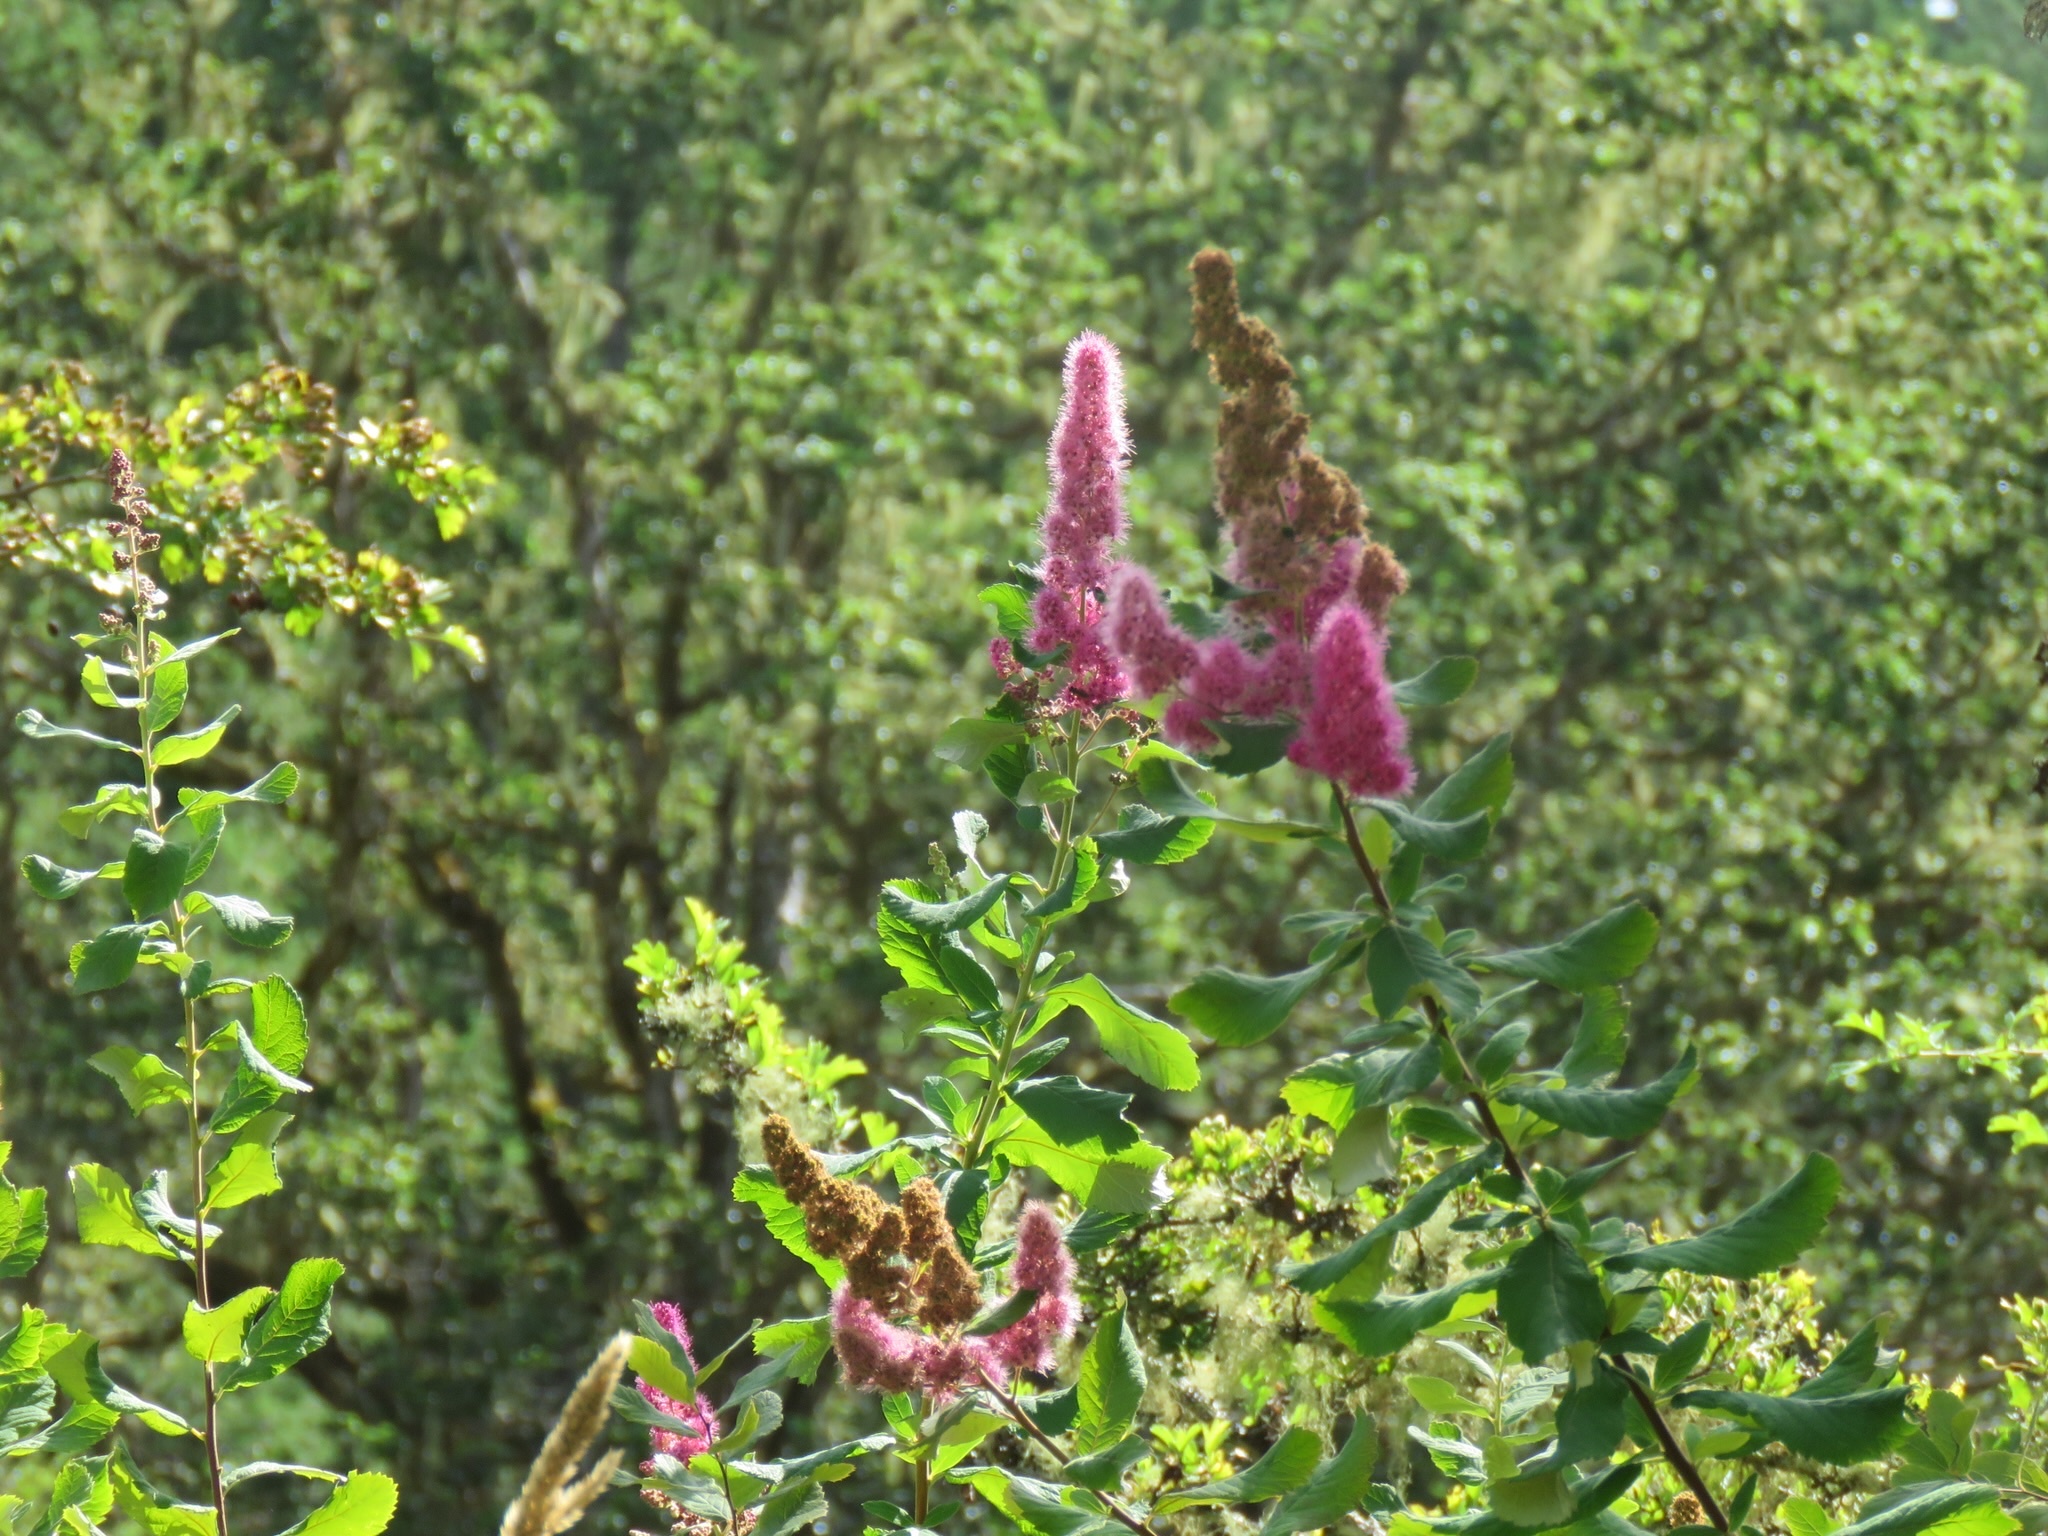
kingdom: Plantae
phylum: Tracheophyta
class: Magnoliopsida
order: Rosales
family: Rosaceae
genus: Spiraea
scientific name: Spiraea douglasii
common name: Steeplebush
